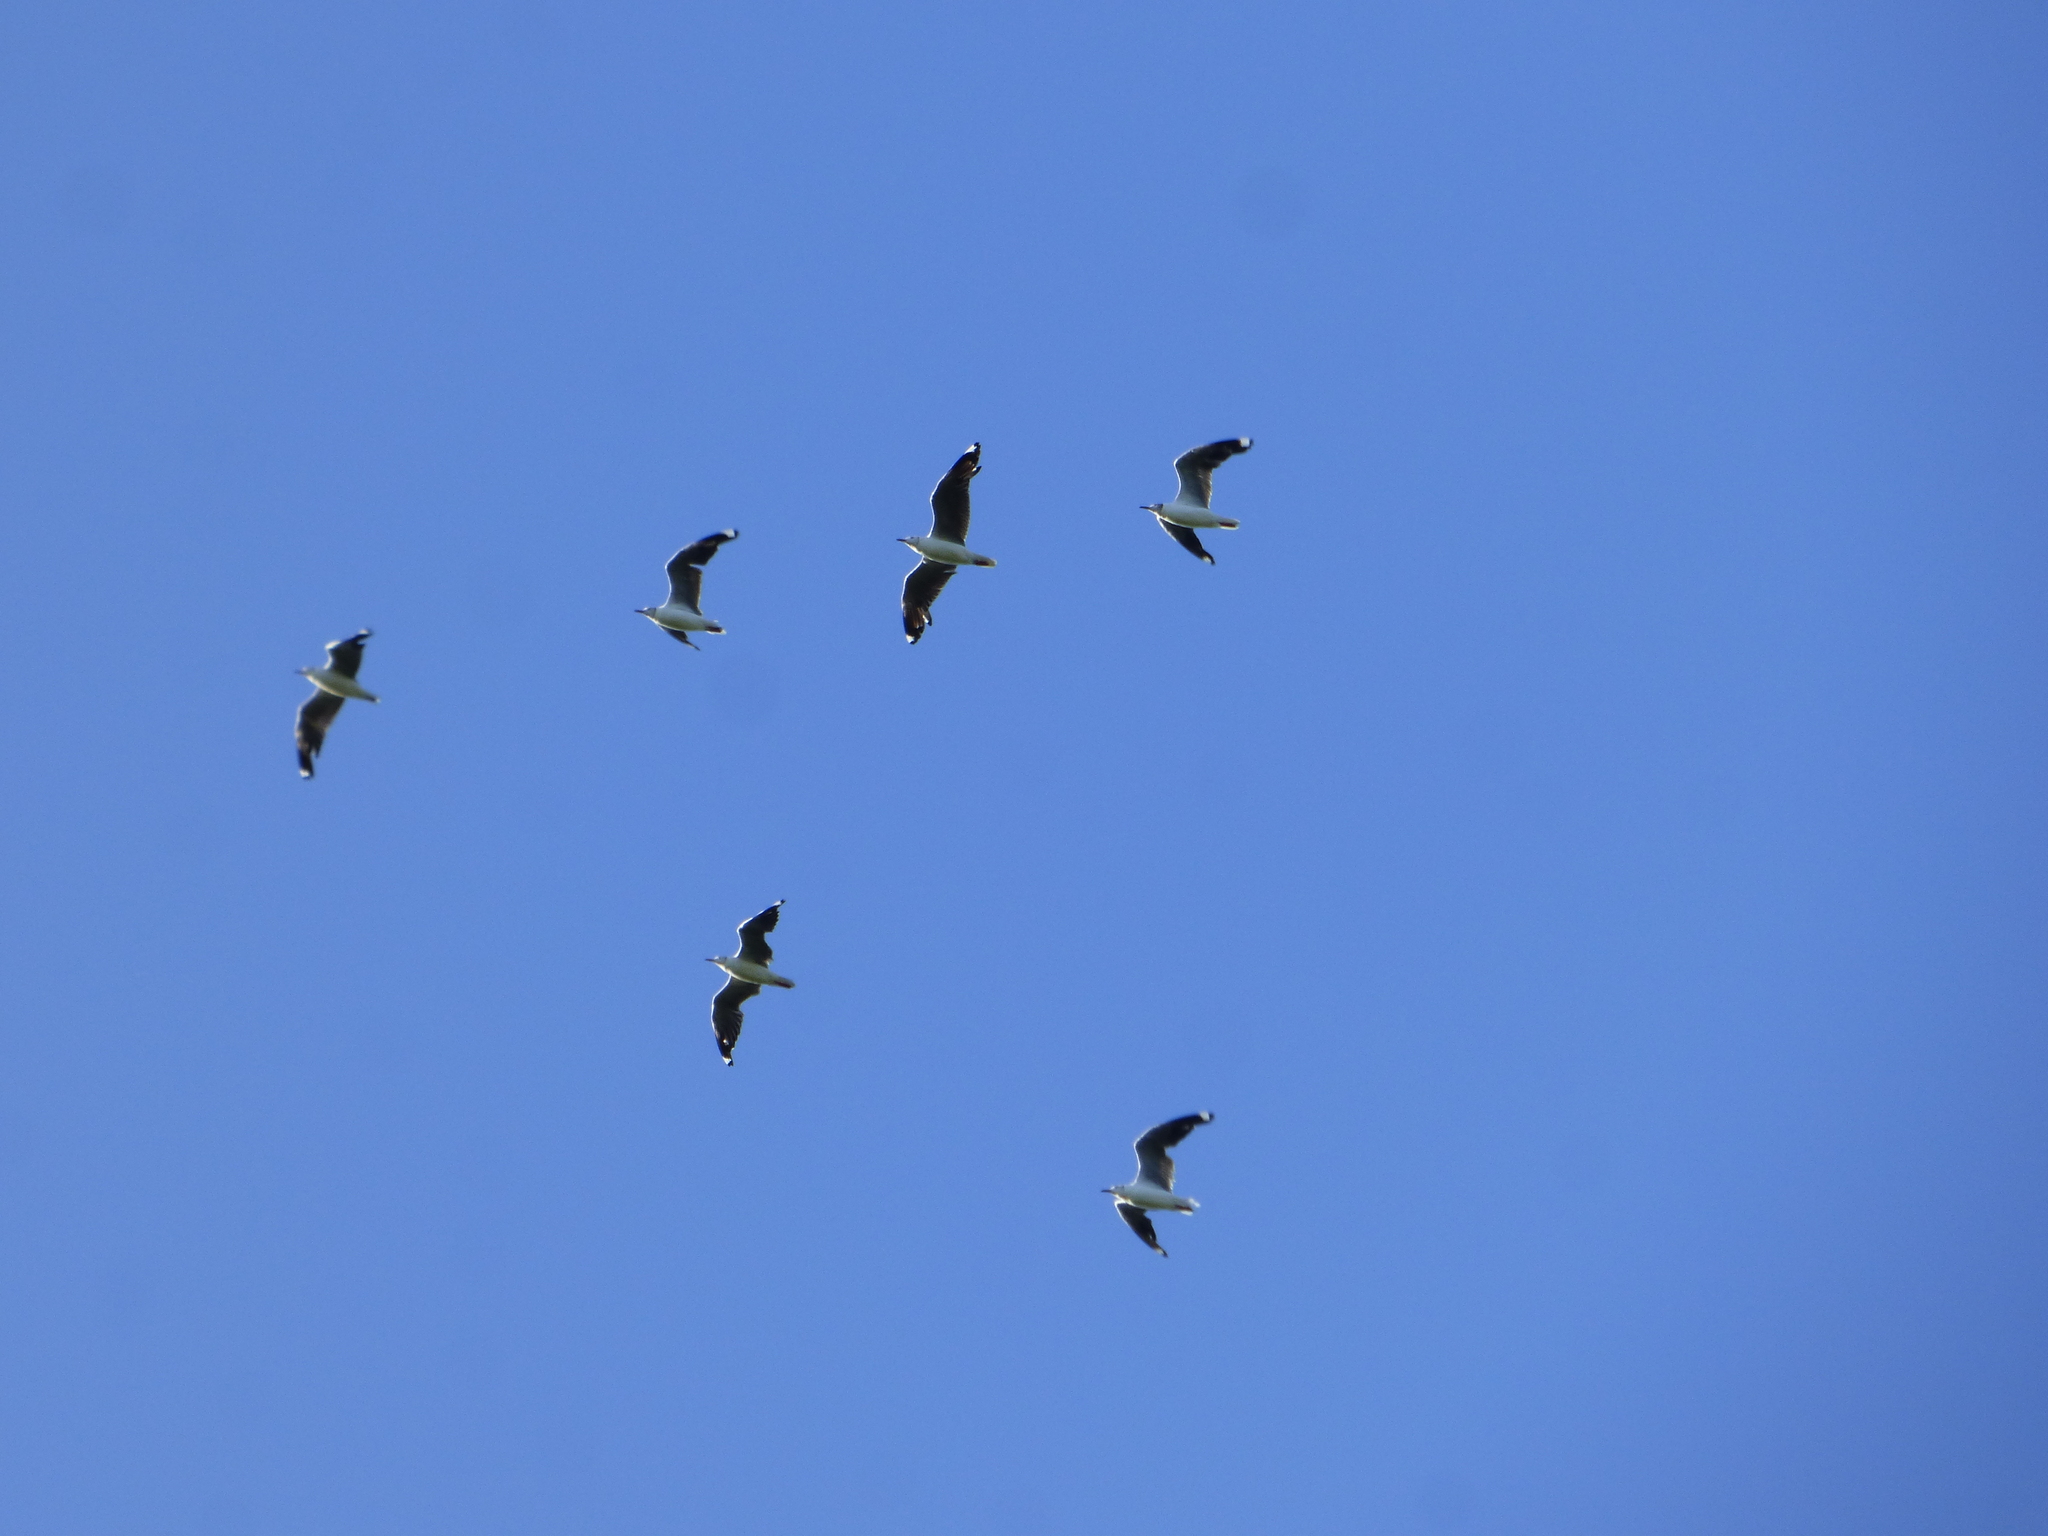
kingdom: Animalia
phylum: Chordata
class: Aves
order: Charadriiformes
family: Laridae
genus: Chroicocephalus
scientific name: Chroicocephalus cirrocephalus
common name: Grey-headed gull
